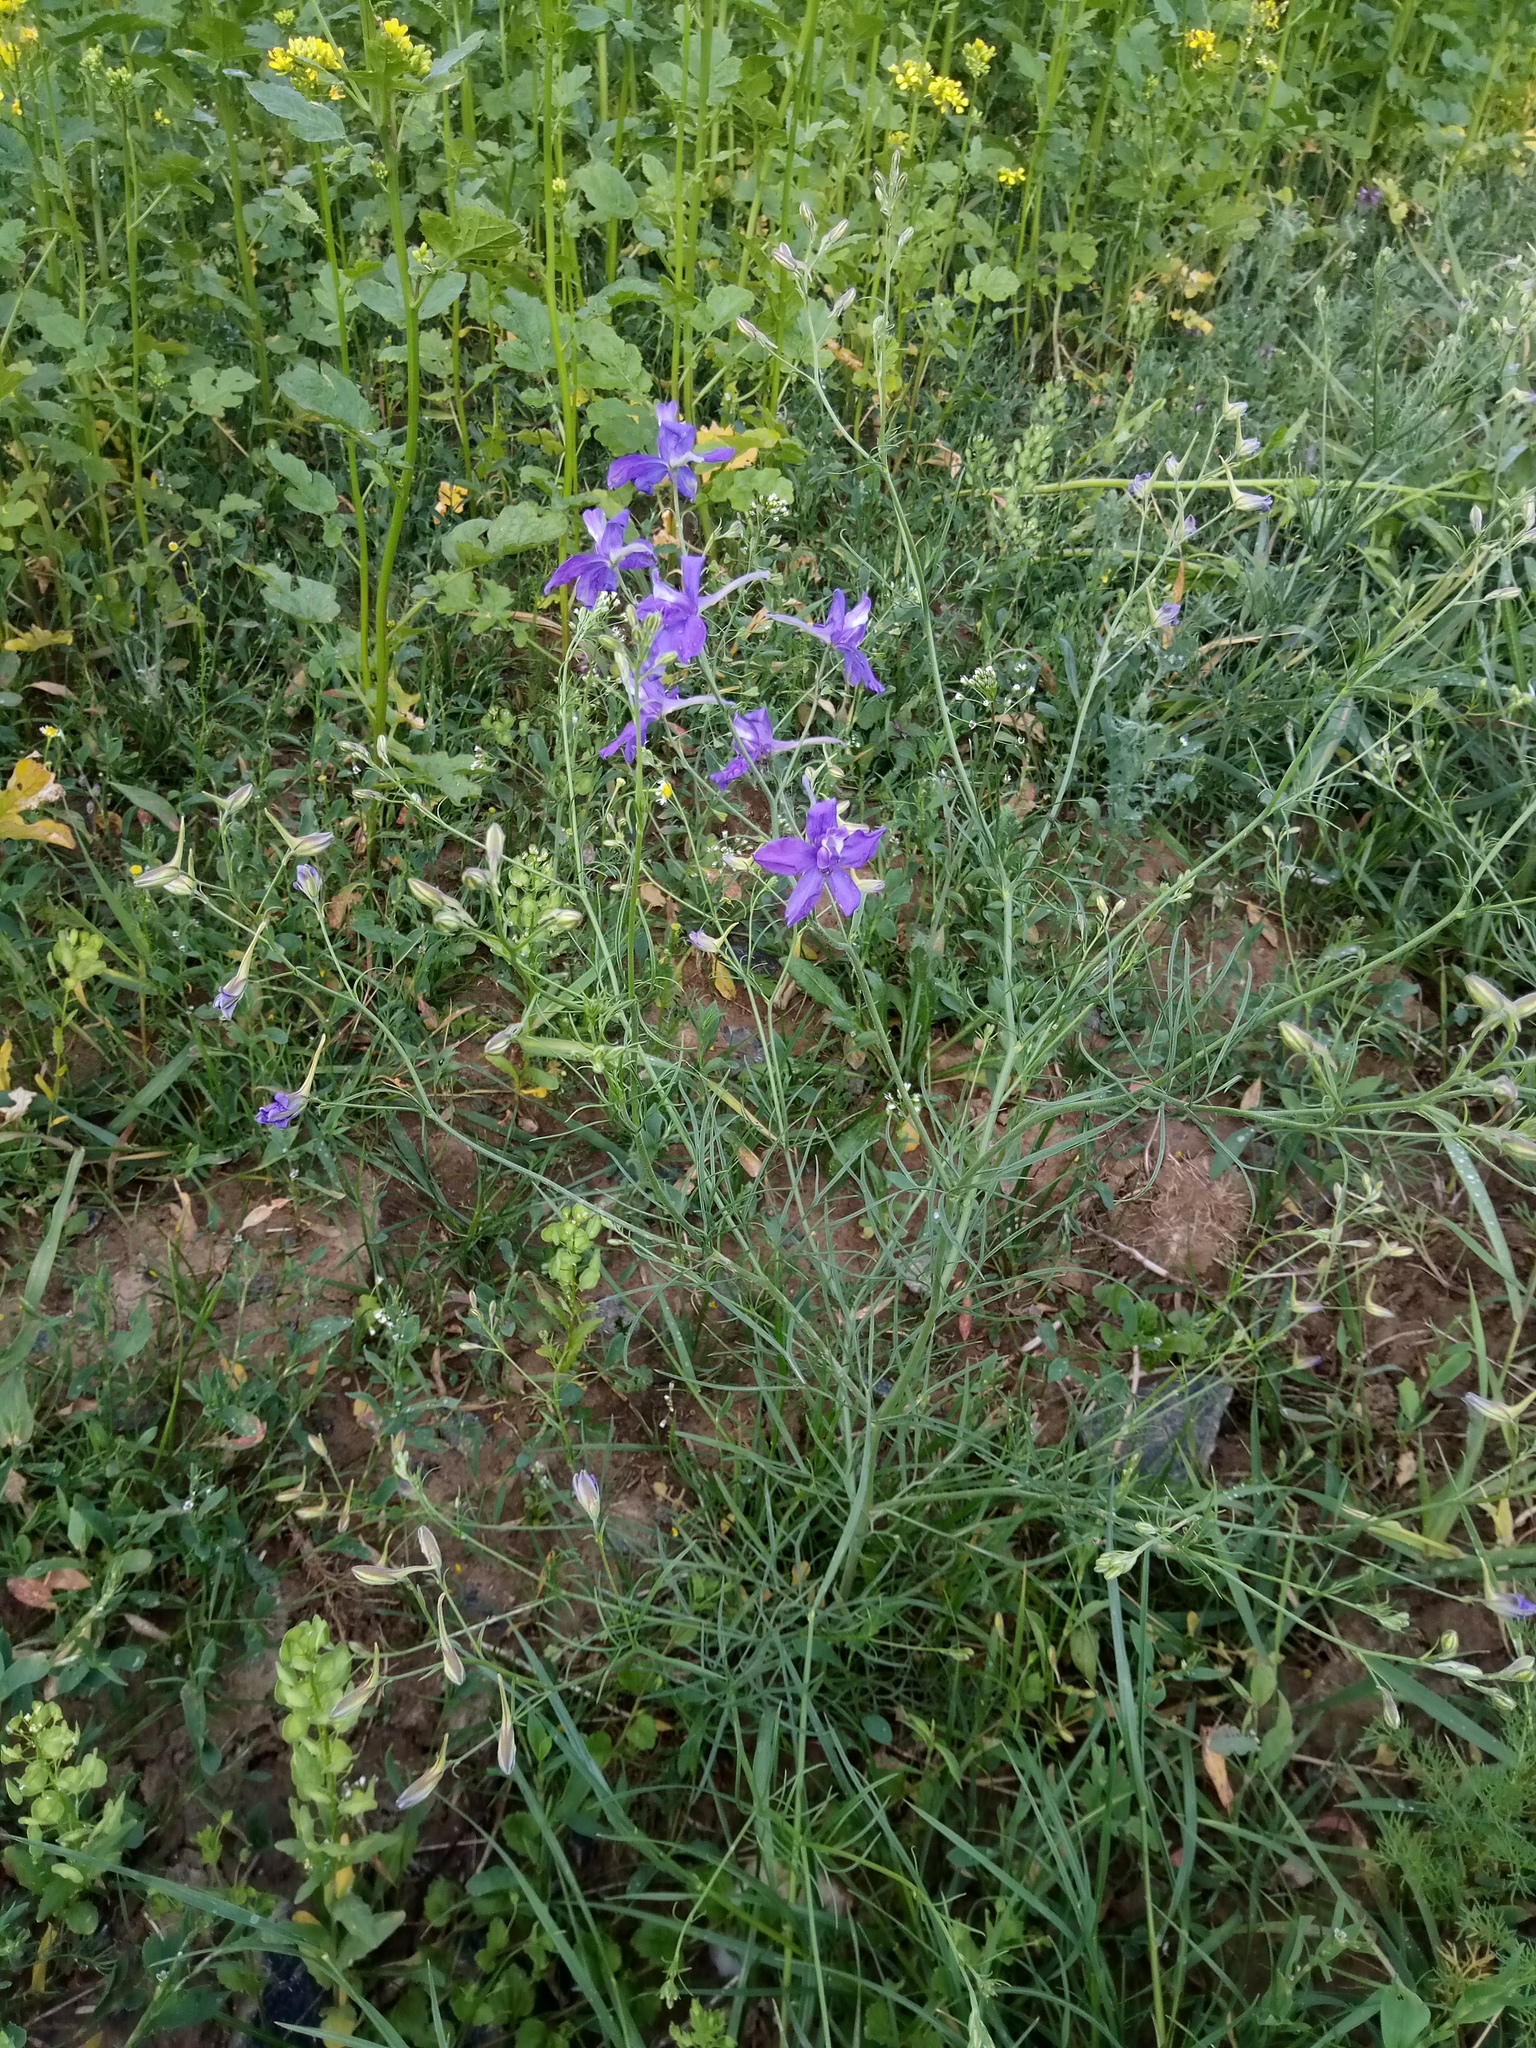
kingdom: Plantae
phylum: Tracheophyta
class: Magnoliopsida
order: Ranunculales
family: Ranunculaceae
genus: Delphinium
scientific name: Delphinium consolida
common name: Branching larkspur
